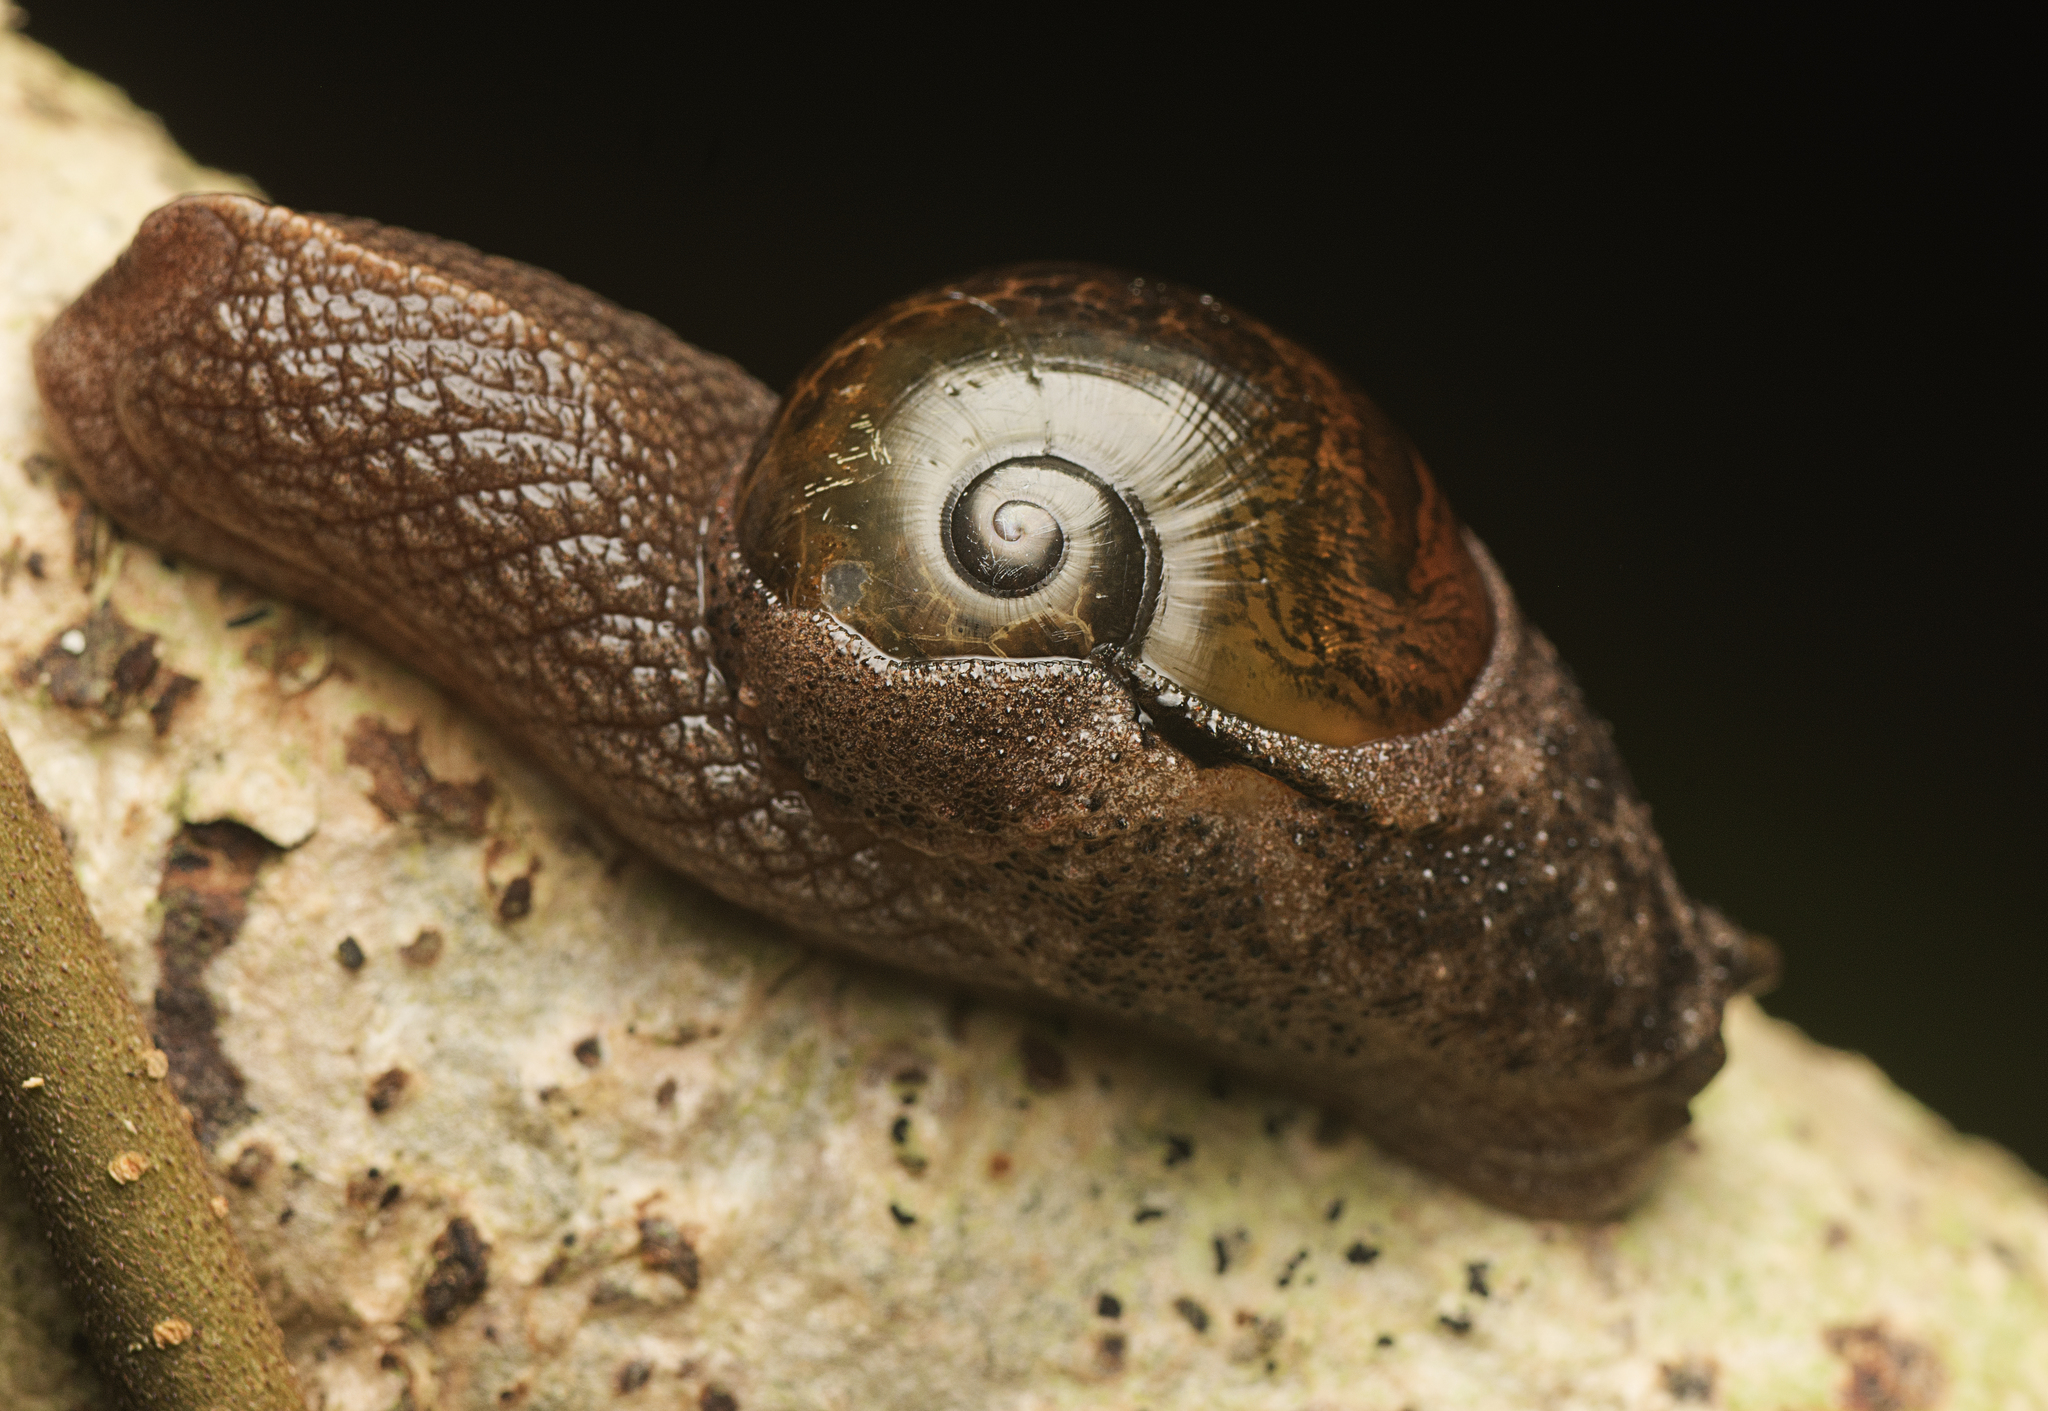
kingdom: Animalia
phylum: Mollusca
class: Gastropoda
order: Stylommatophora
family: Helicarionidae
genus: Stanisicarion
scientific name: Stanisicarion freycineti
